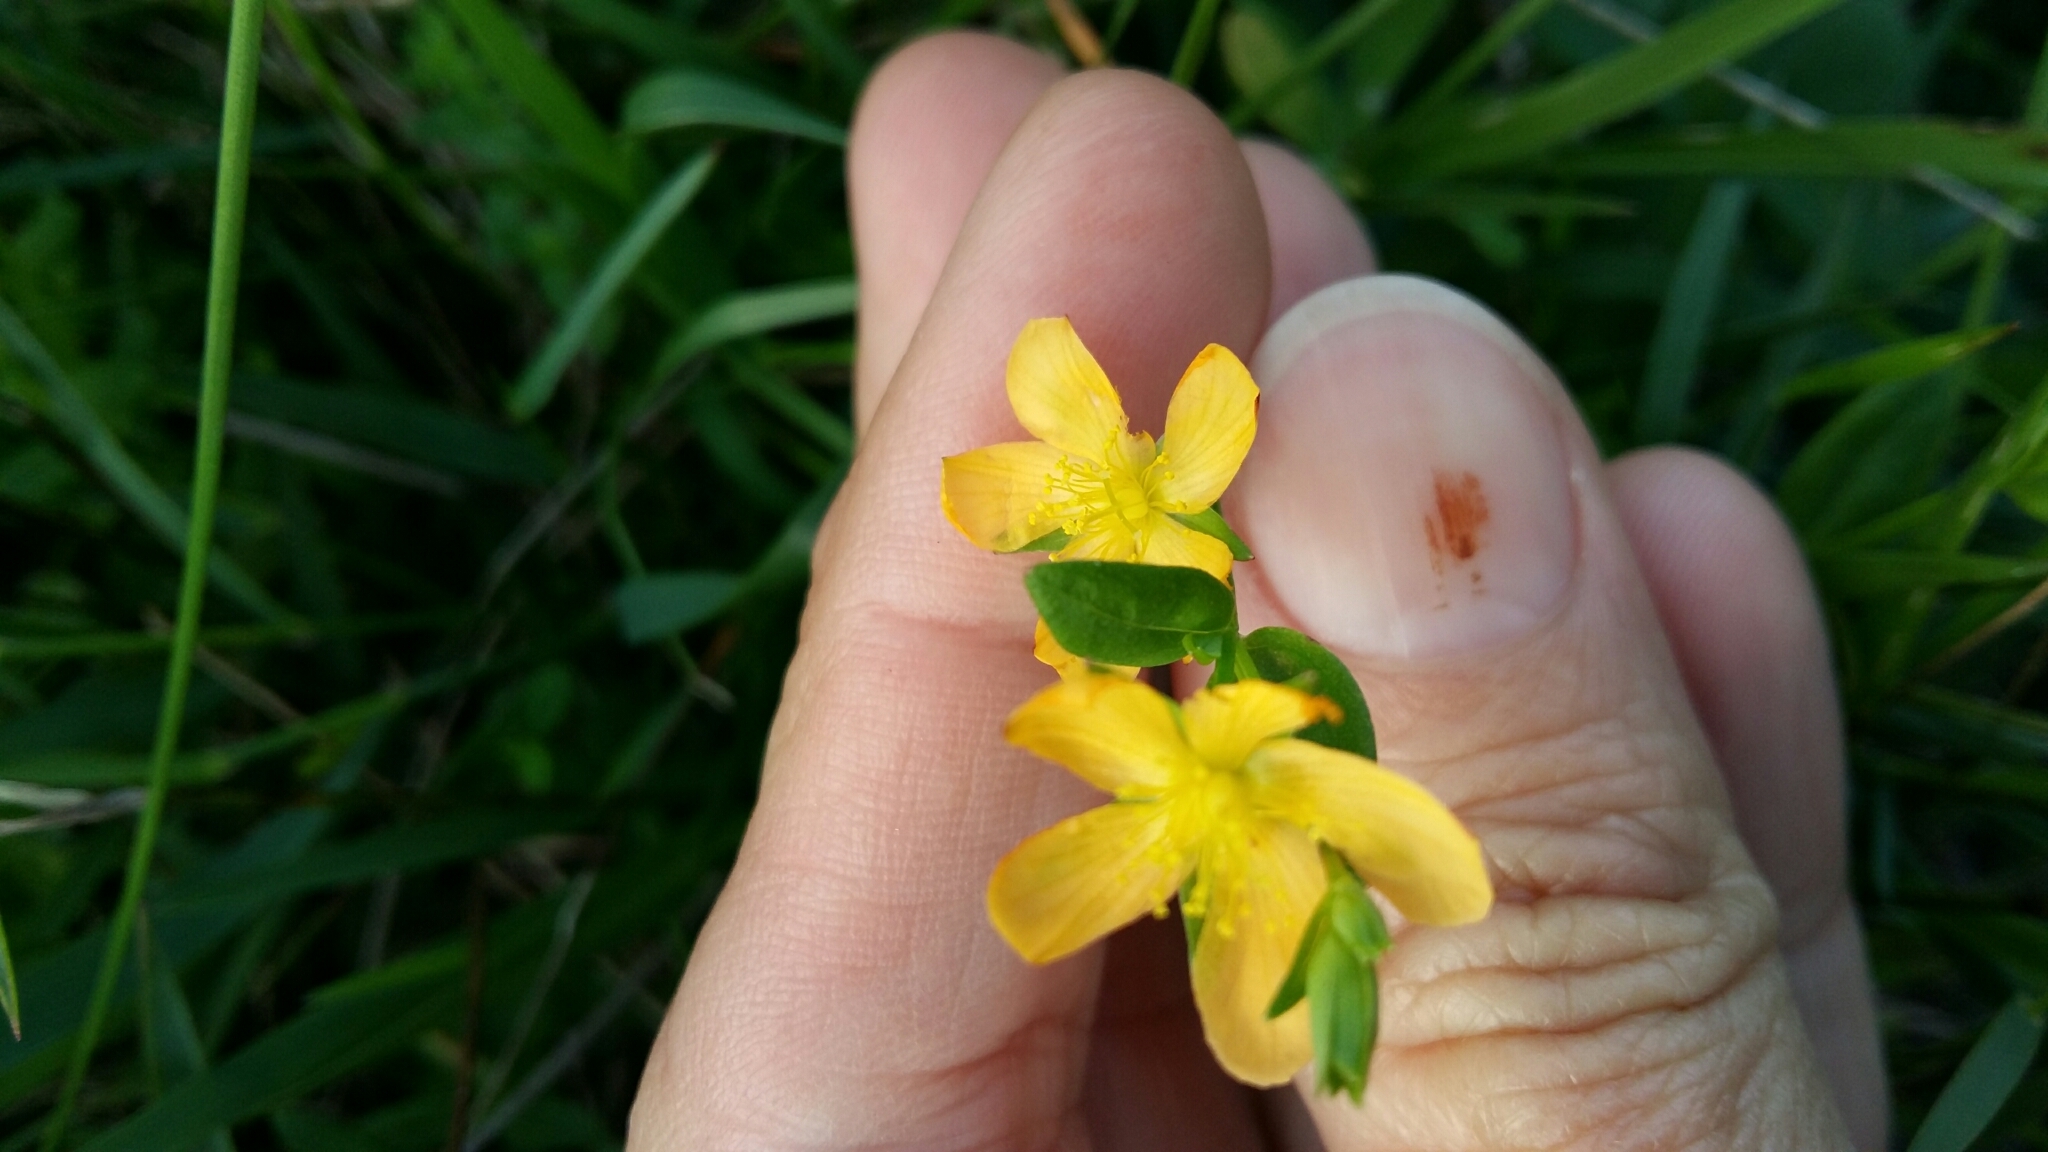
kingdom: Plantae
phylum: Tracheophyta
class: Magnoliopsida
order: Malpighiales
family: Hypericaceae
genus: Hypericum
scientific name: Hypericum aethiopicum
